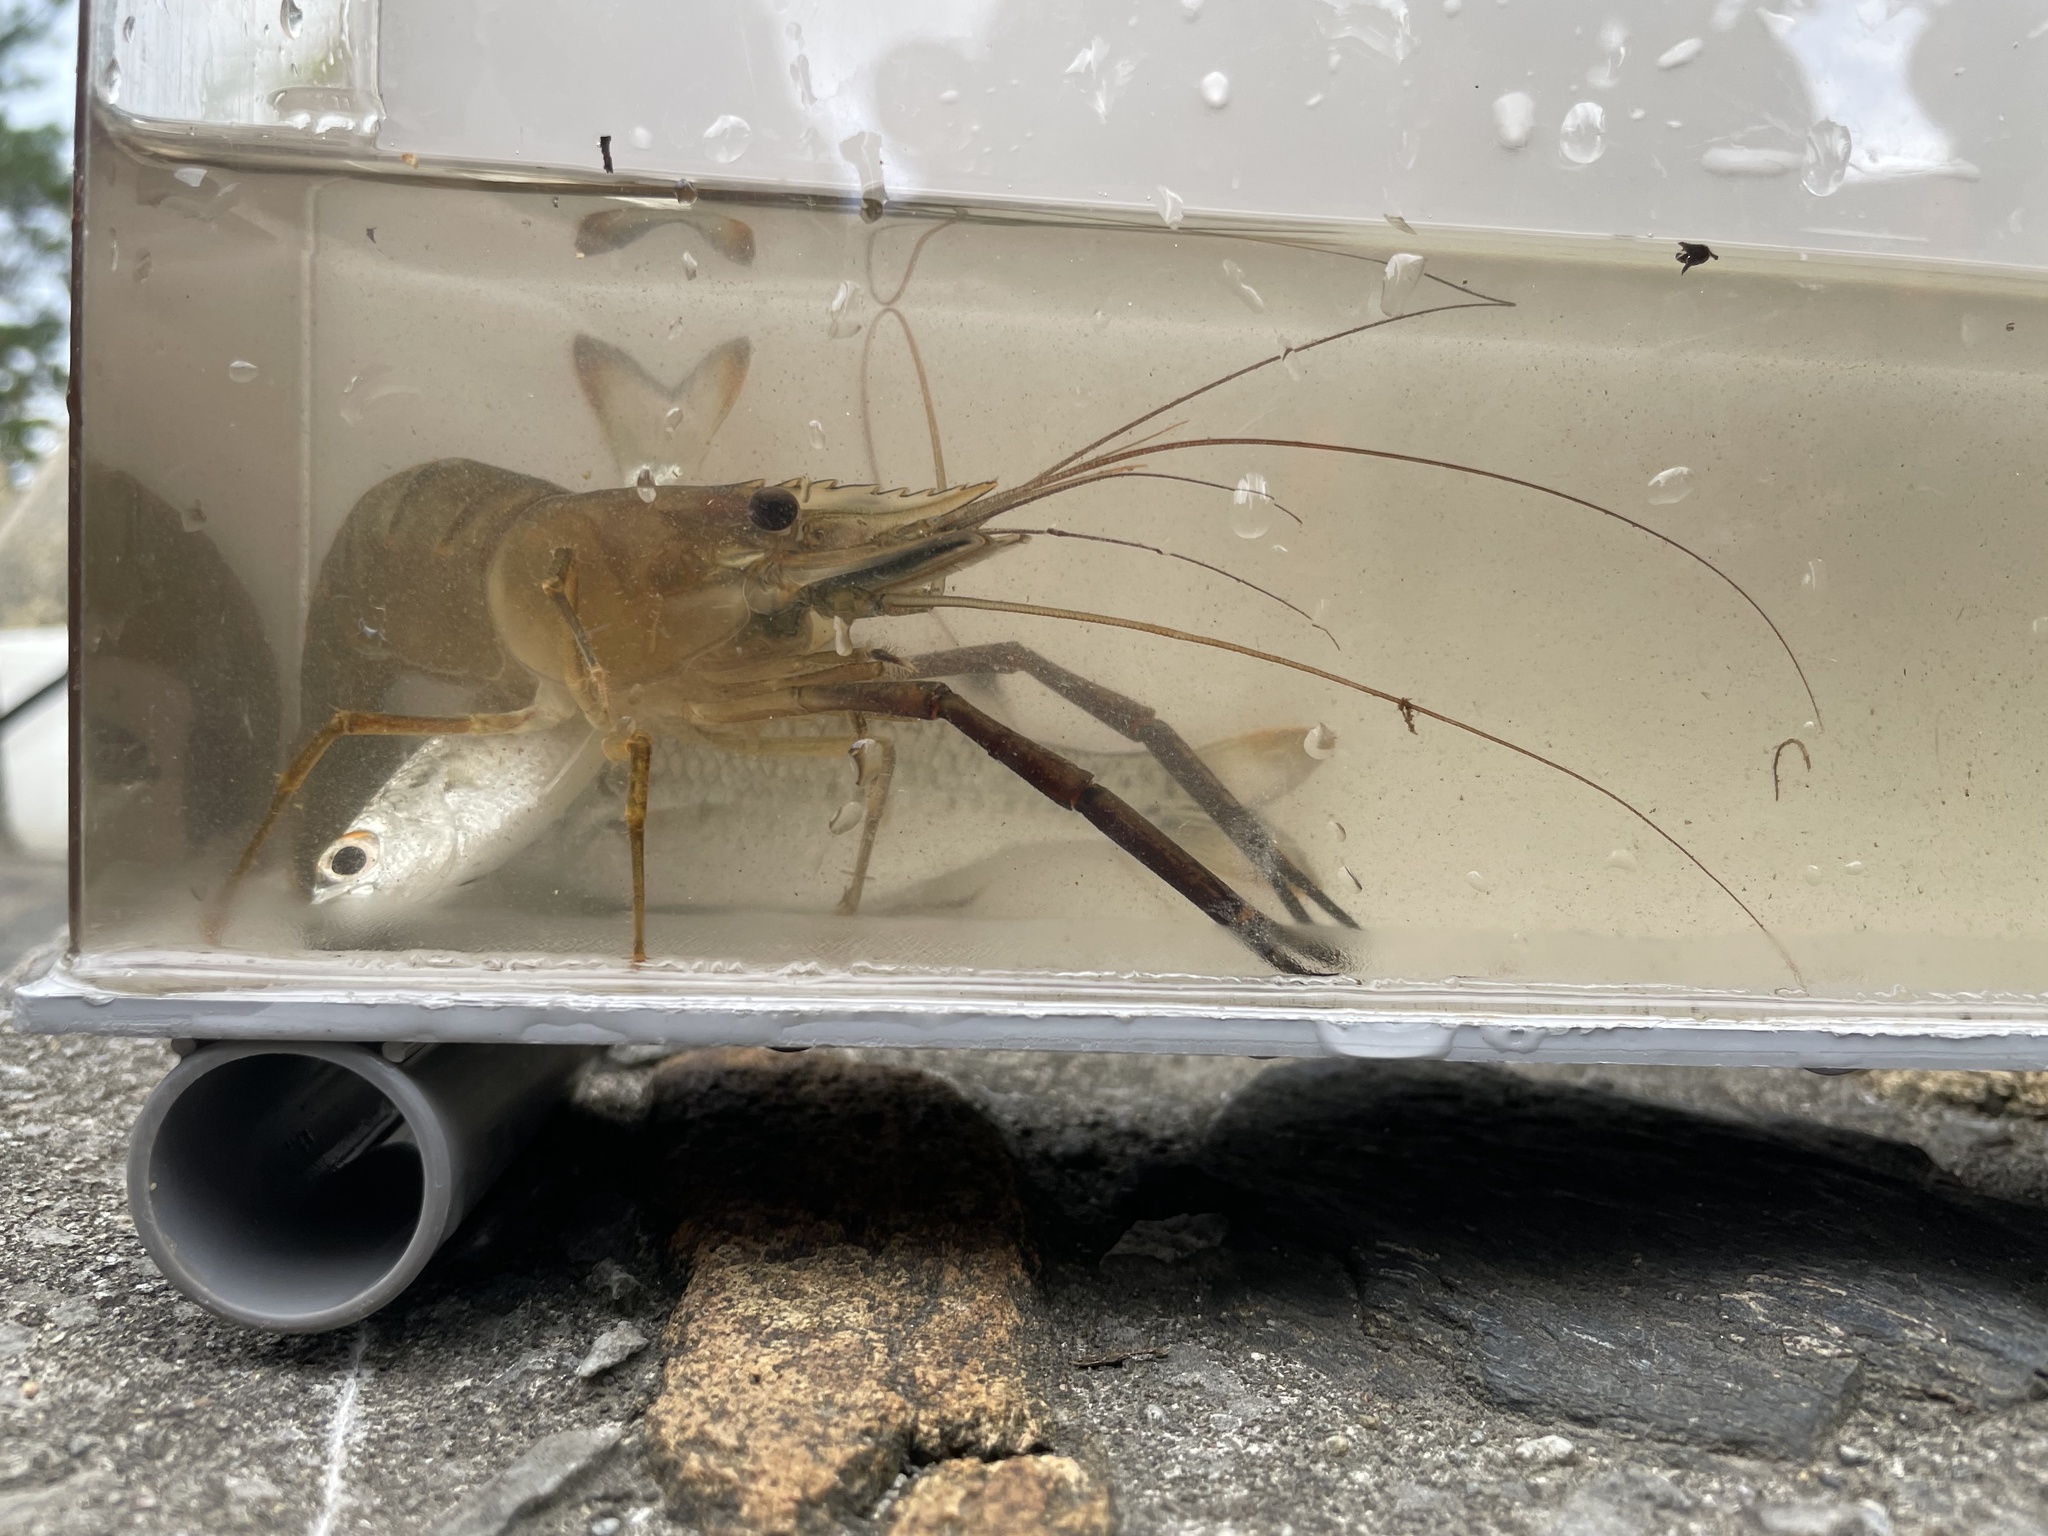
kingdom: Animalia
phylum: Arthropoda
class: Malacostraca
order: Decapoda
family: Palaemonidae
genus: Macrobrachium
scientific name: Macrobrachium lar
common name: Monkey river prawn
